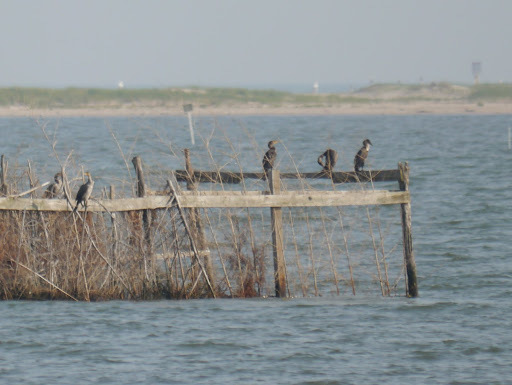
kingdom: Animalia
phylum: Chordata
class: Aves
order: Suliformes
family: Phalacrocoracidae
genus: Phalacrocorax
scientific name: Phalacrocorax auritus
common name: Double-crested cormorant
